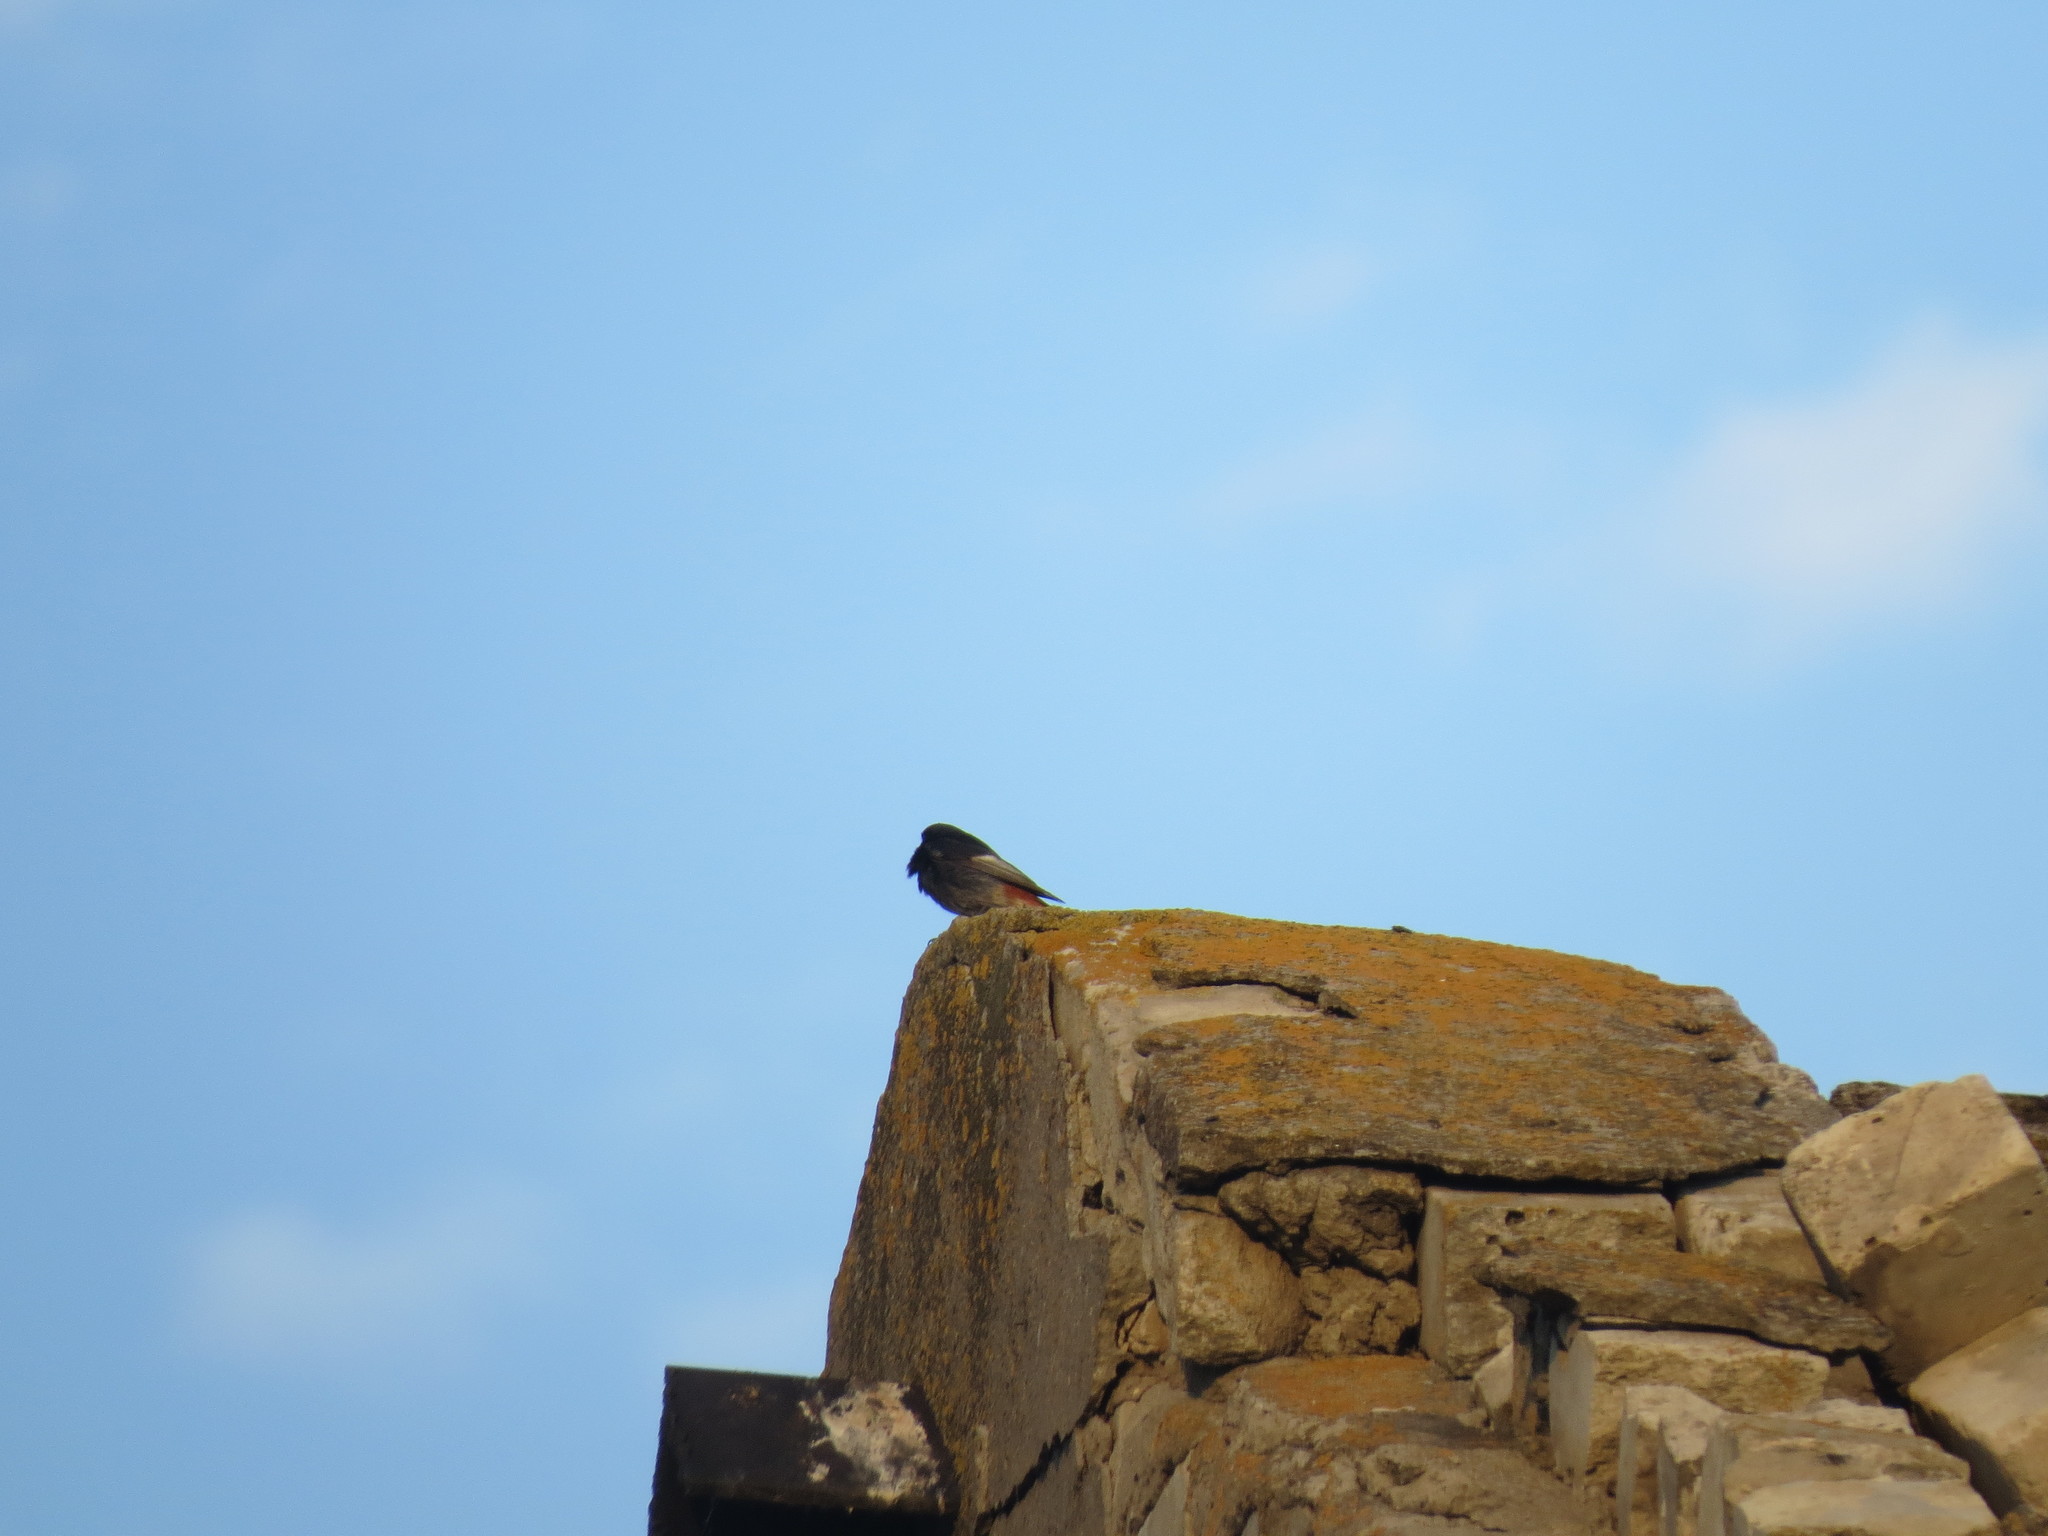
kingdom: Animalia
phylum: Chordata
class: Aves
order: Passeriformes
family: Muscicapidae
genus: Phoenicurus
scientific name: Phoenicurus ochruros
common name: Black redstart
